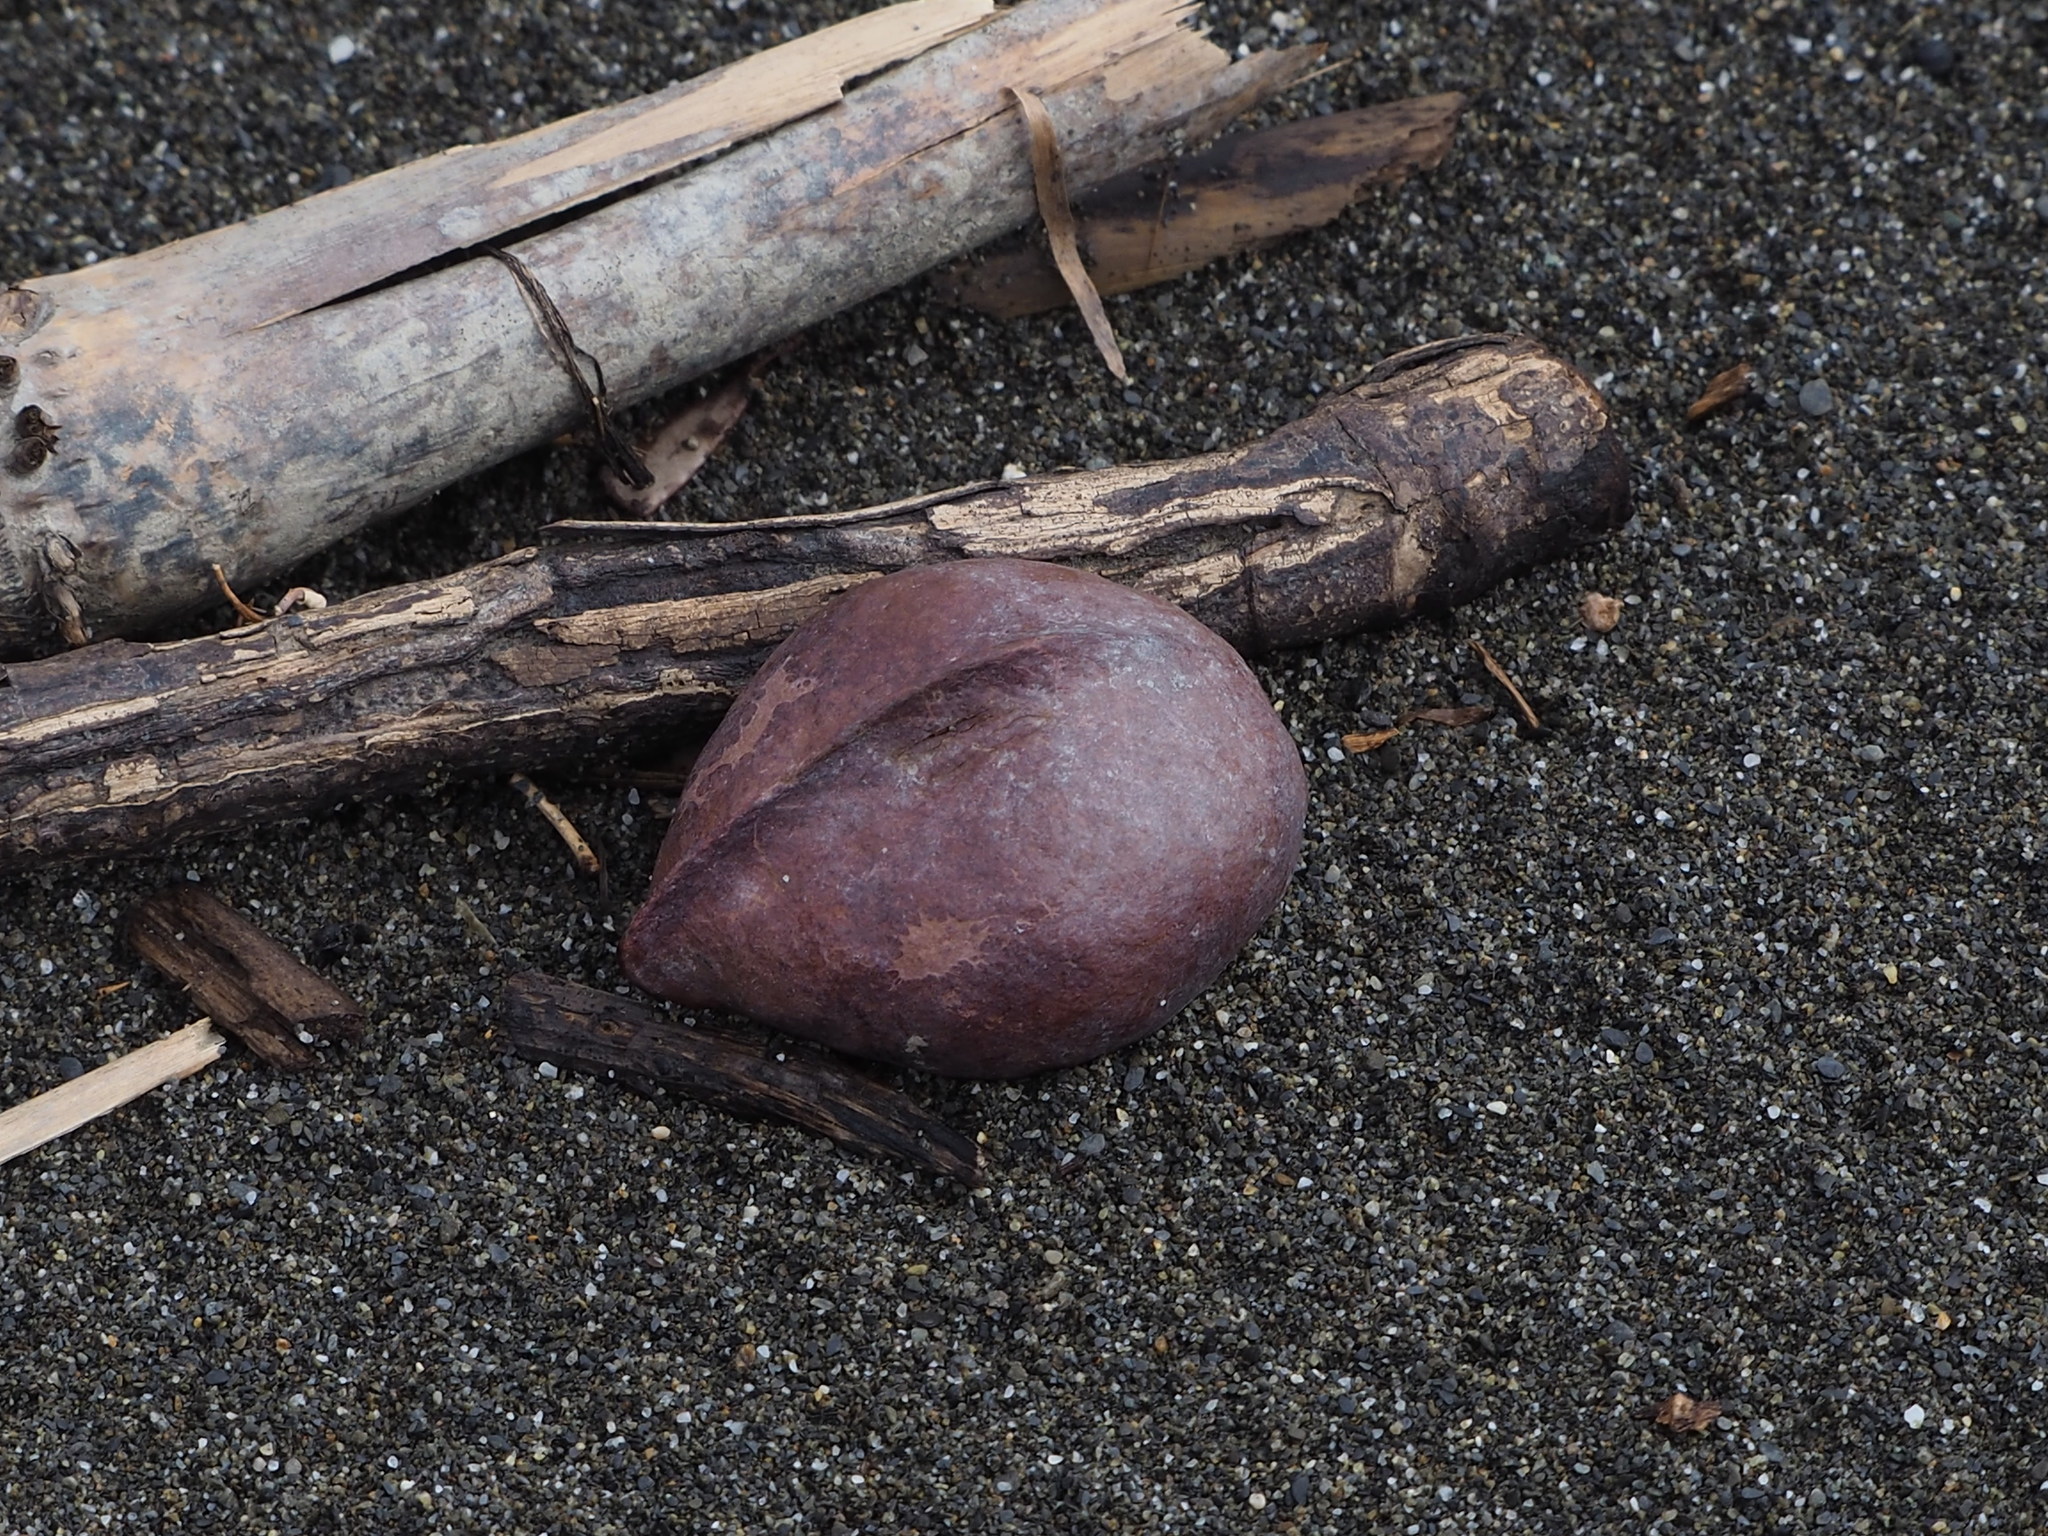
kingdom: Plantae
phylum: Tracheophyta
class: Magnoliopsida
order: Malvales
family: Malvaceae
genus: Heritiera
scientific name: Heritiera littoralis
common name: Looking-glass mangrove
